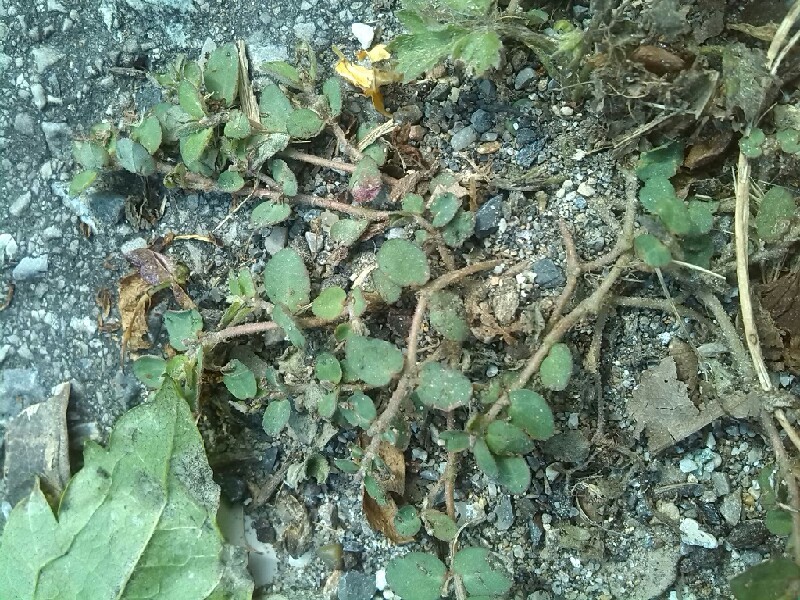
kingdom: Plantae
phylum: Tracheophyta
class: Magnoliopsida
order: Malpighiales
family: Euphorbiaceae
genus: Euphorbia
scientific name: Euphorbia prostrata
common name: Prostrate sandmat
